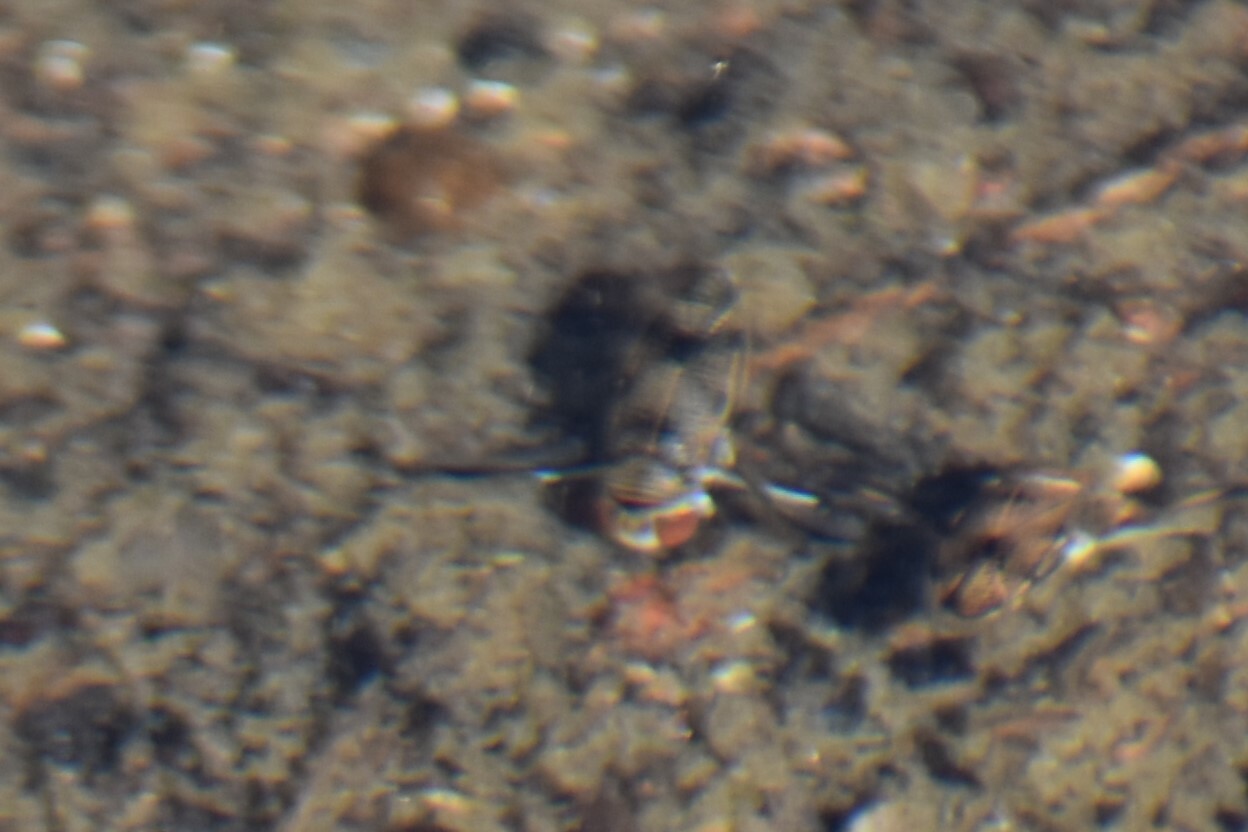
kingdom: Animalia
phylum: Arthropoda
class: Insecta
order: Hemiptera
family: Corixidae
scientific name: Corixidae
